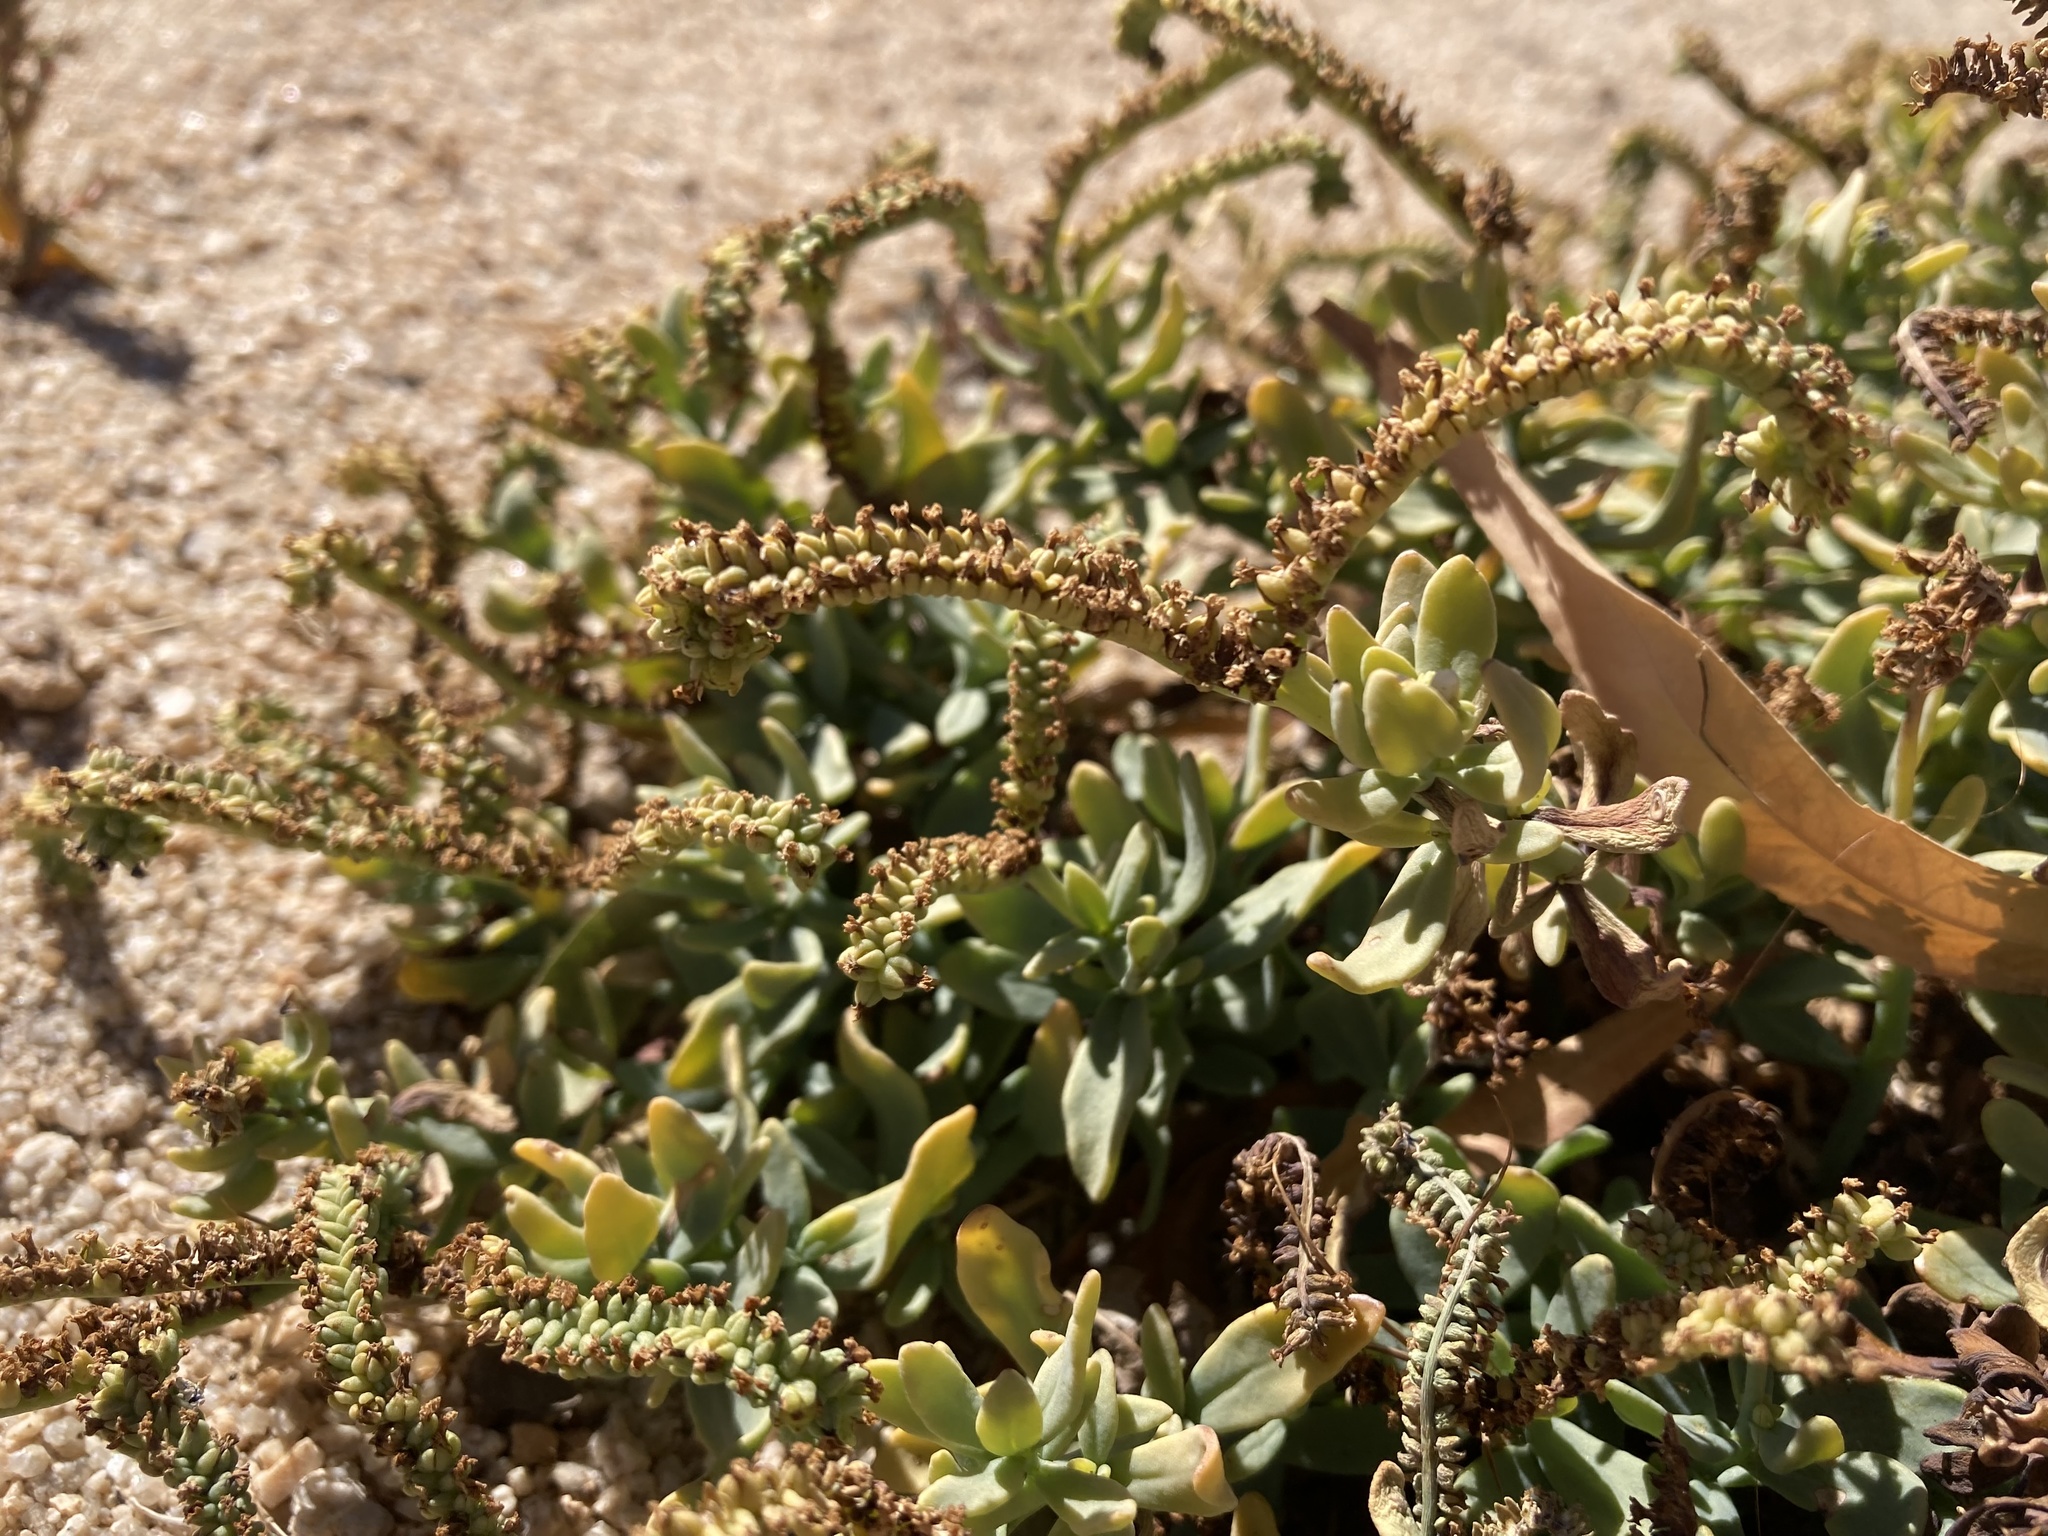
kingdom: Plantae
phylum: Tracheophyta
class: Magnoliopsida
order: Boraginales
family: Heliotropiaceae
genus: Heliotropium
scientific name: Heliotropium curassavicum
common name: Seaside heliotrope
